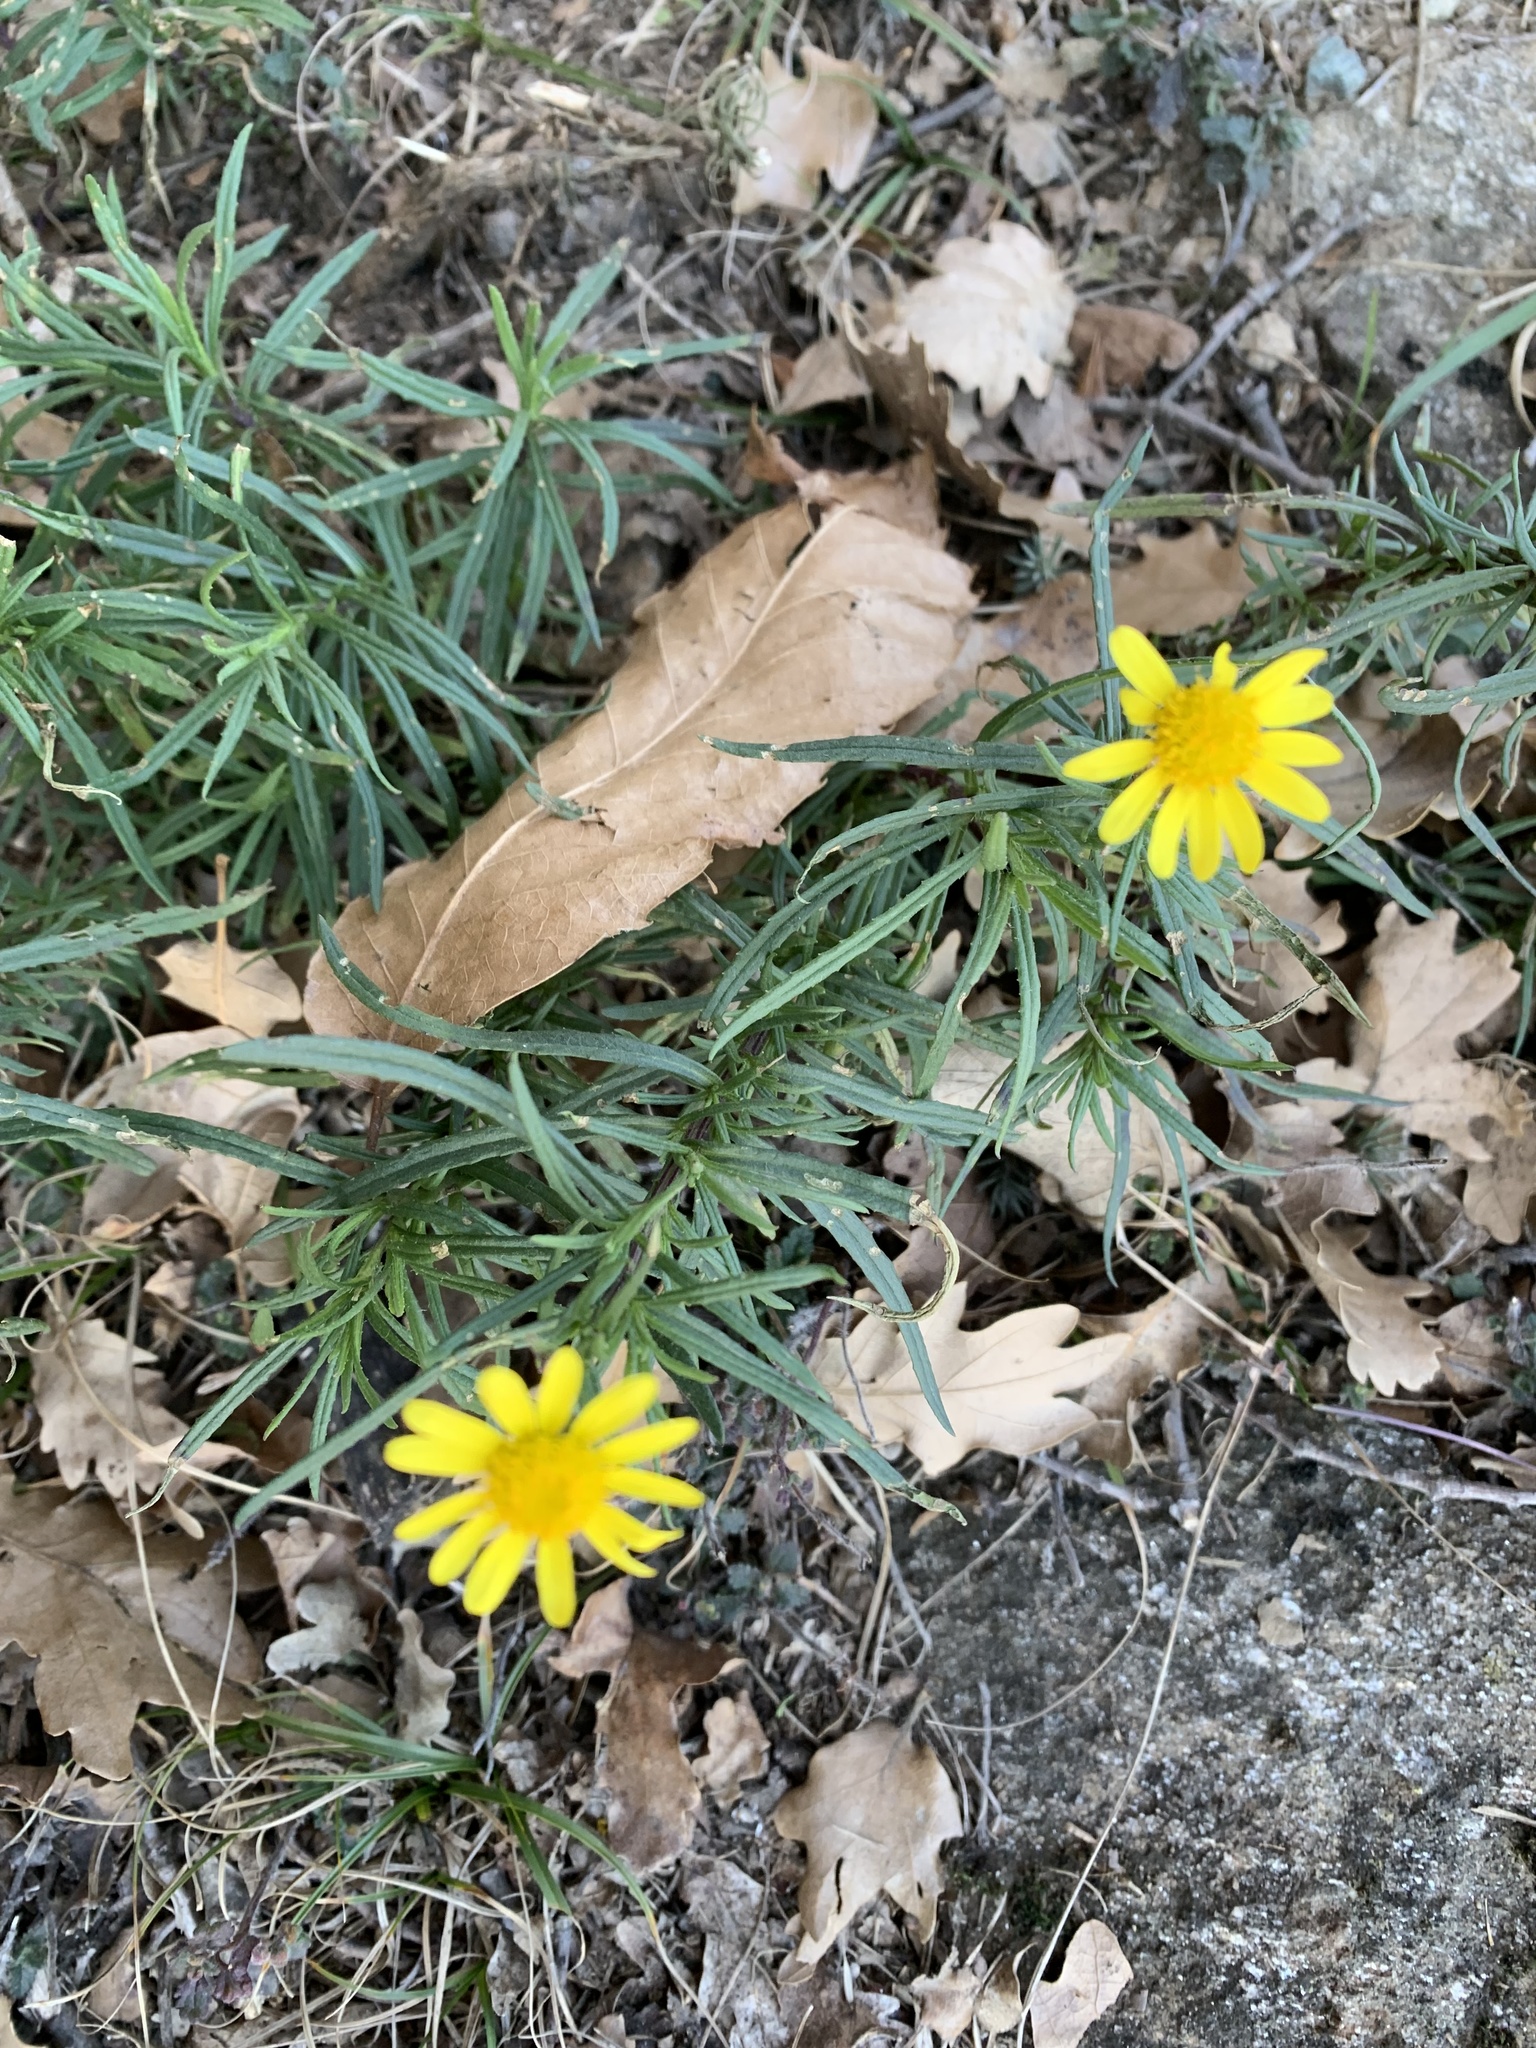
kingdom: Plantae
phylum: Tracheophyta
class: Magnoliopsida
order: Asterales
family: Asteraceae
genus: Senecio
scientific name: Senecio inaequidens
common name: Narrow-leaved ragwort
